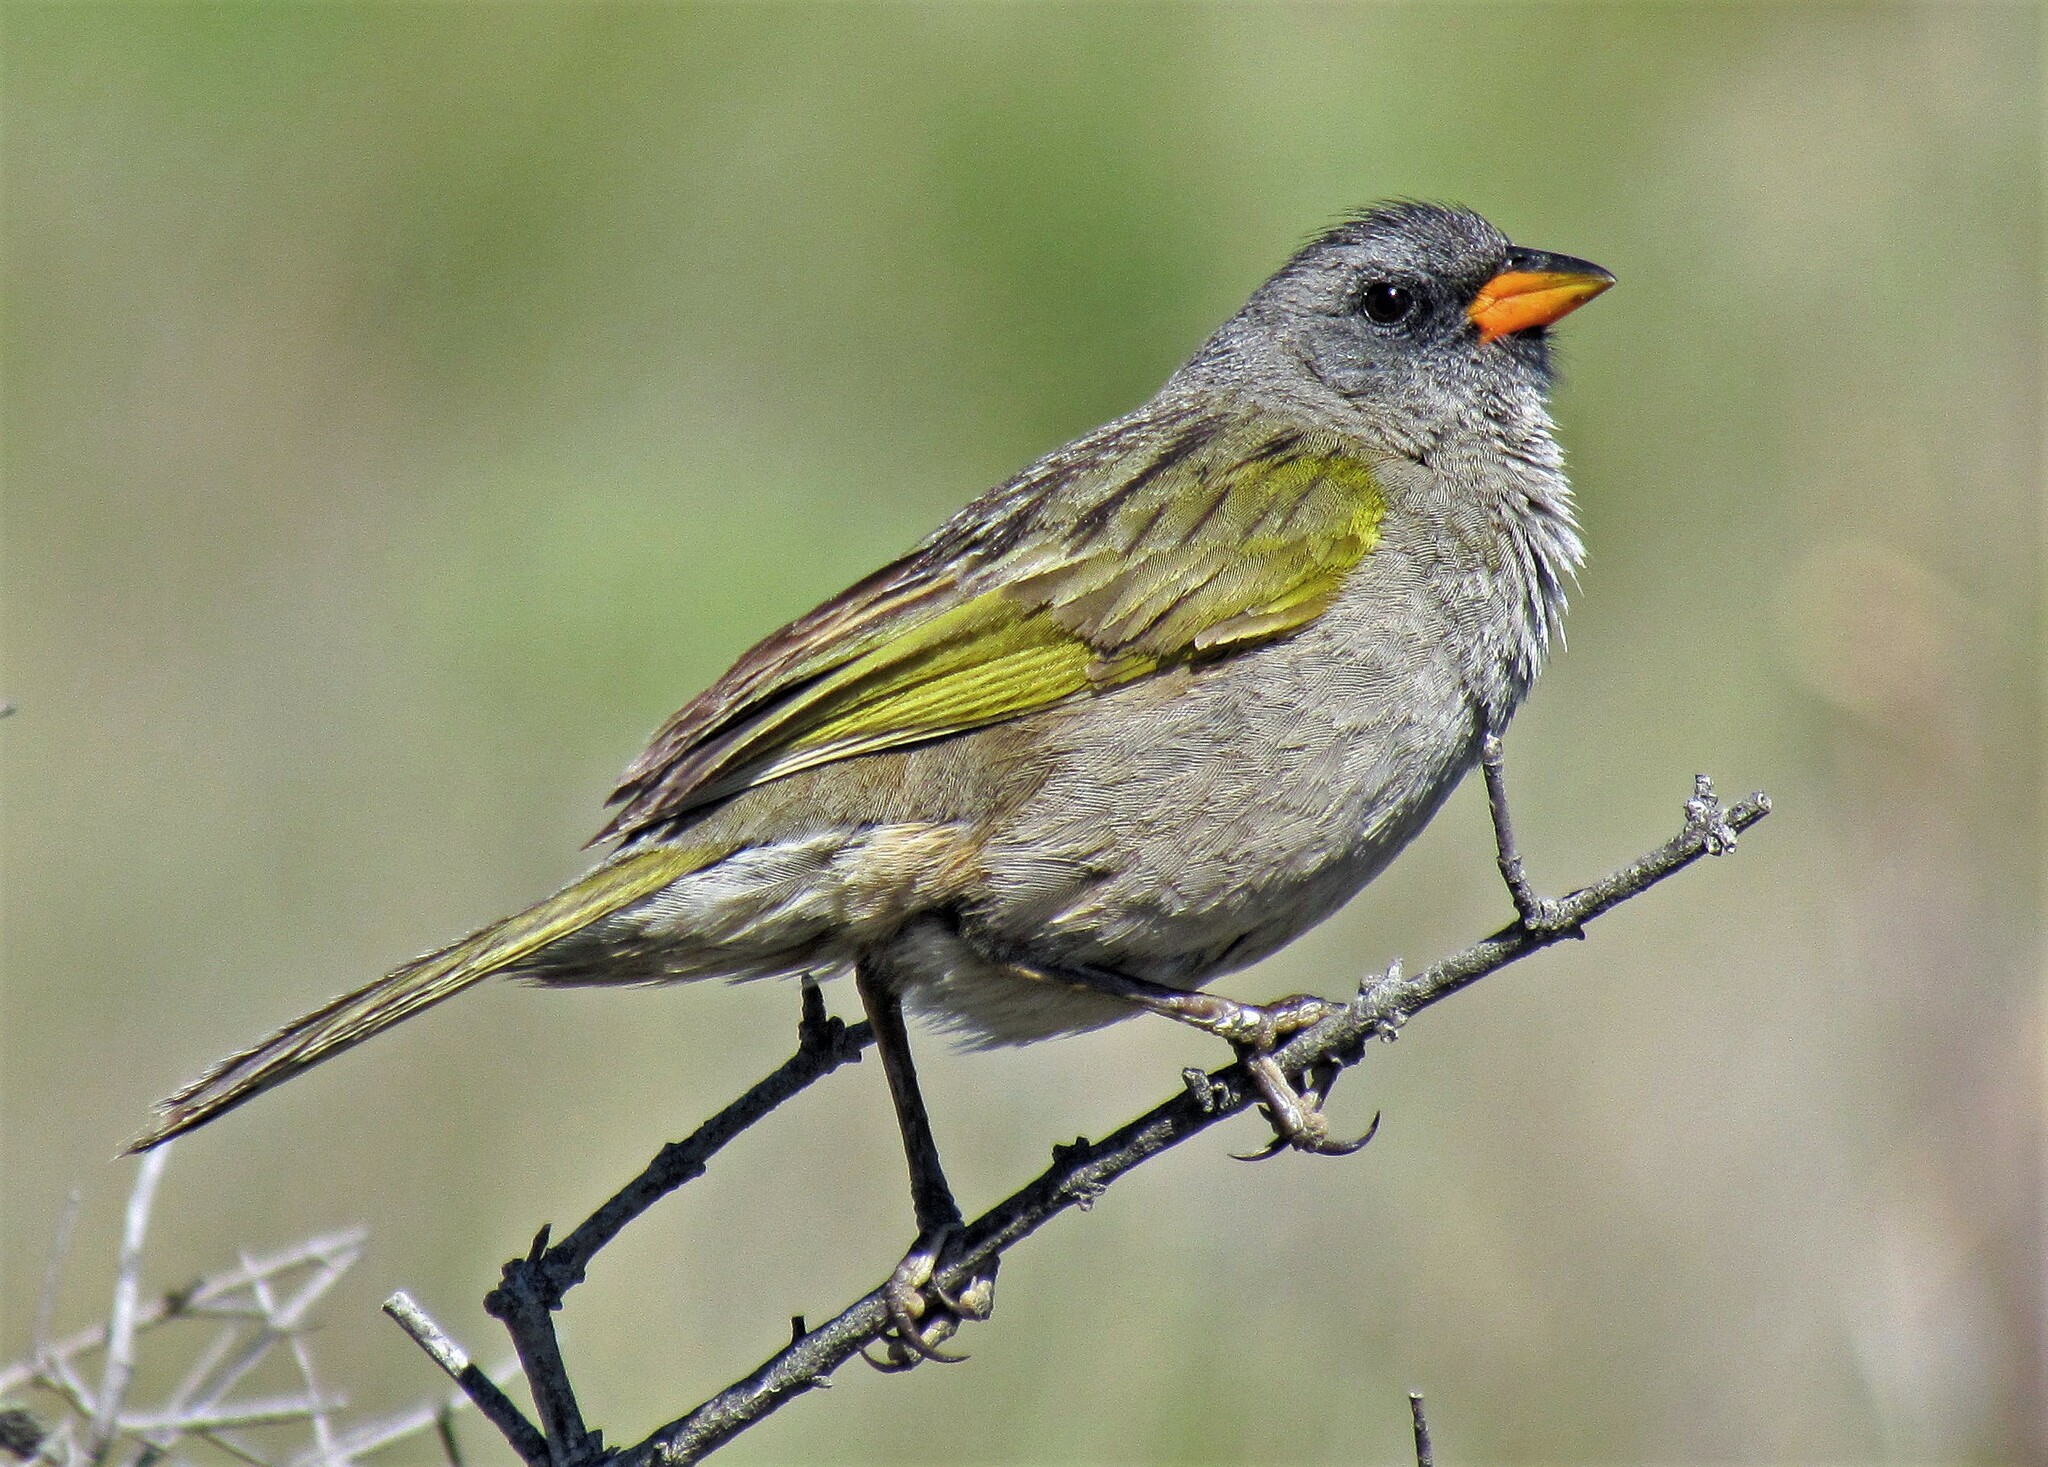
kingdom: Animalia
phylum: Chordata
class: Aves
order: Passeriformes
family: Thraupidae
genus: Embernagra
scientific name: Embernagra platensis
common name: Pampa finch
